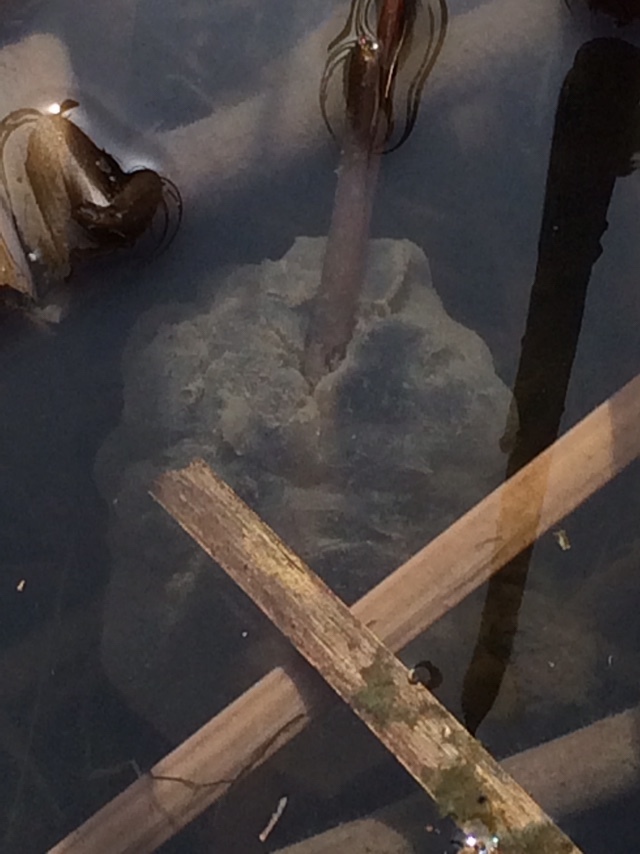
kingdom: Animalia
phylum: Chordata
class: Amphibia
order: Caudata
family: Ambystomatidae
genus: Ambystoma
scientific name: Ambystoma gracile
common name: Northwestern salamander
